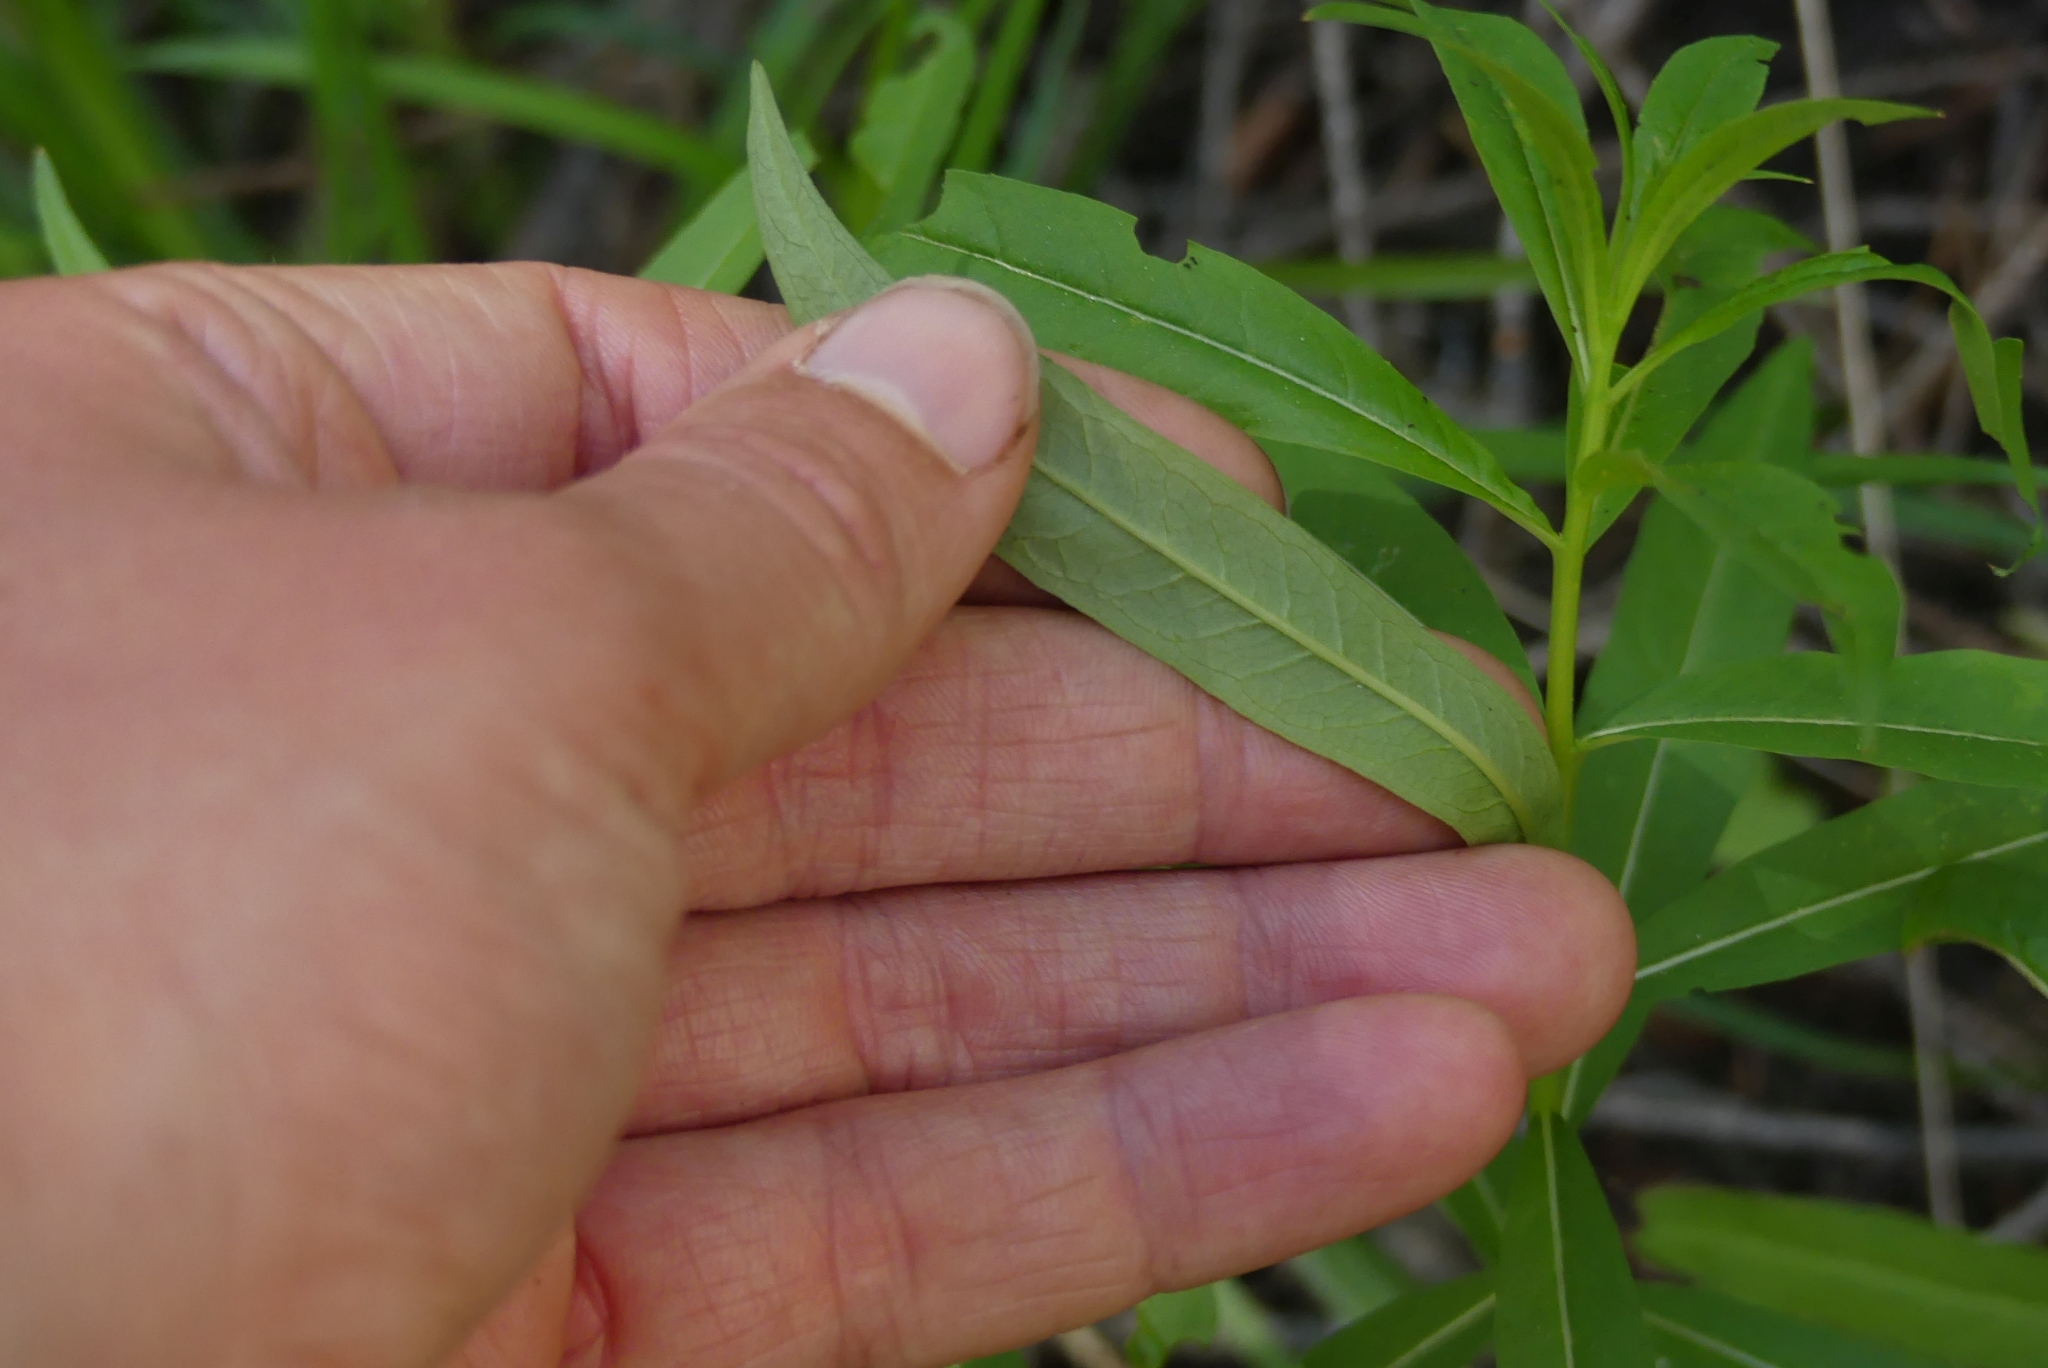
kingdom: Plantae
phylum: Tracheophyta
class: Magnoliopsida
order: Myrtales
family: Onagraceae
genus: Chamaenerion
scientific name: Chamaenerion angustifolium
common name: Fireweed
